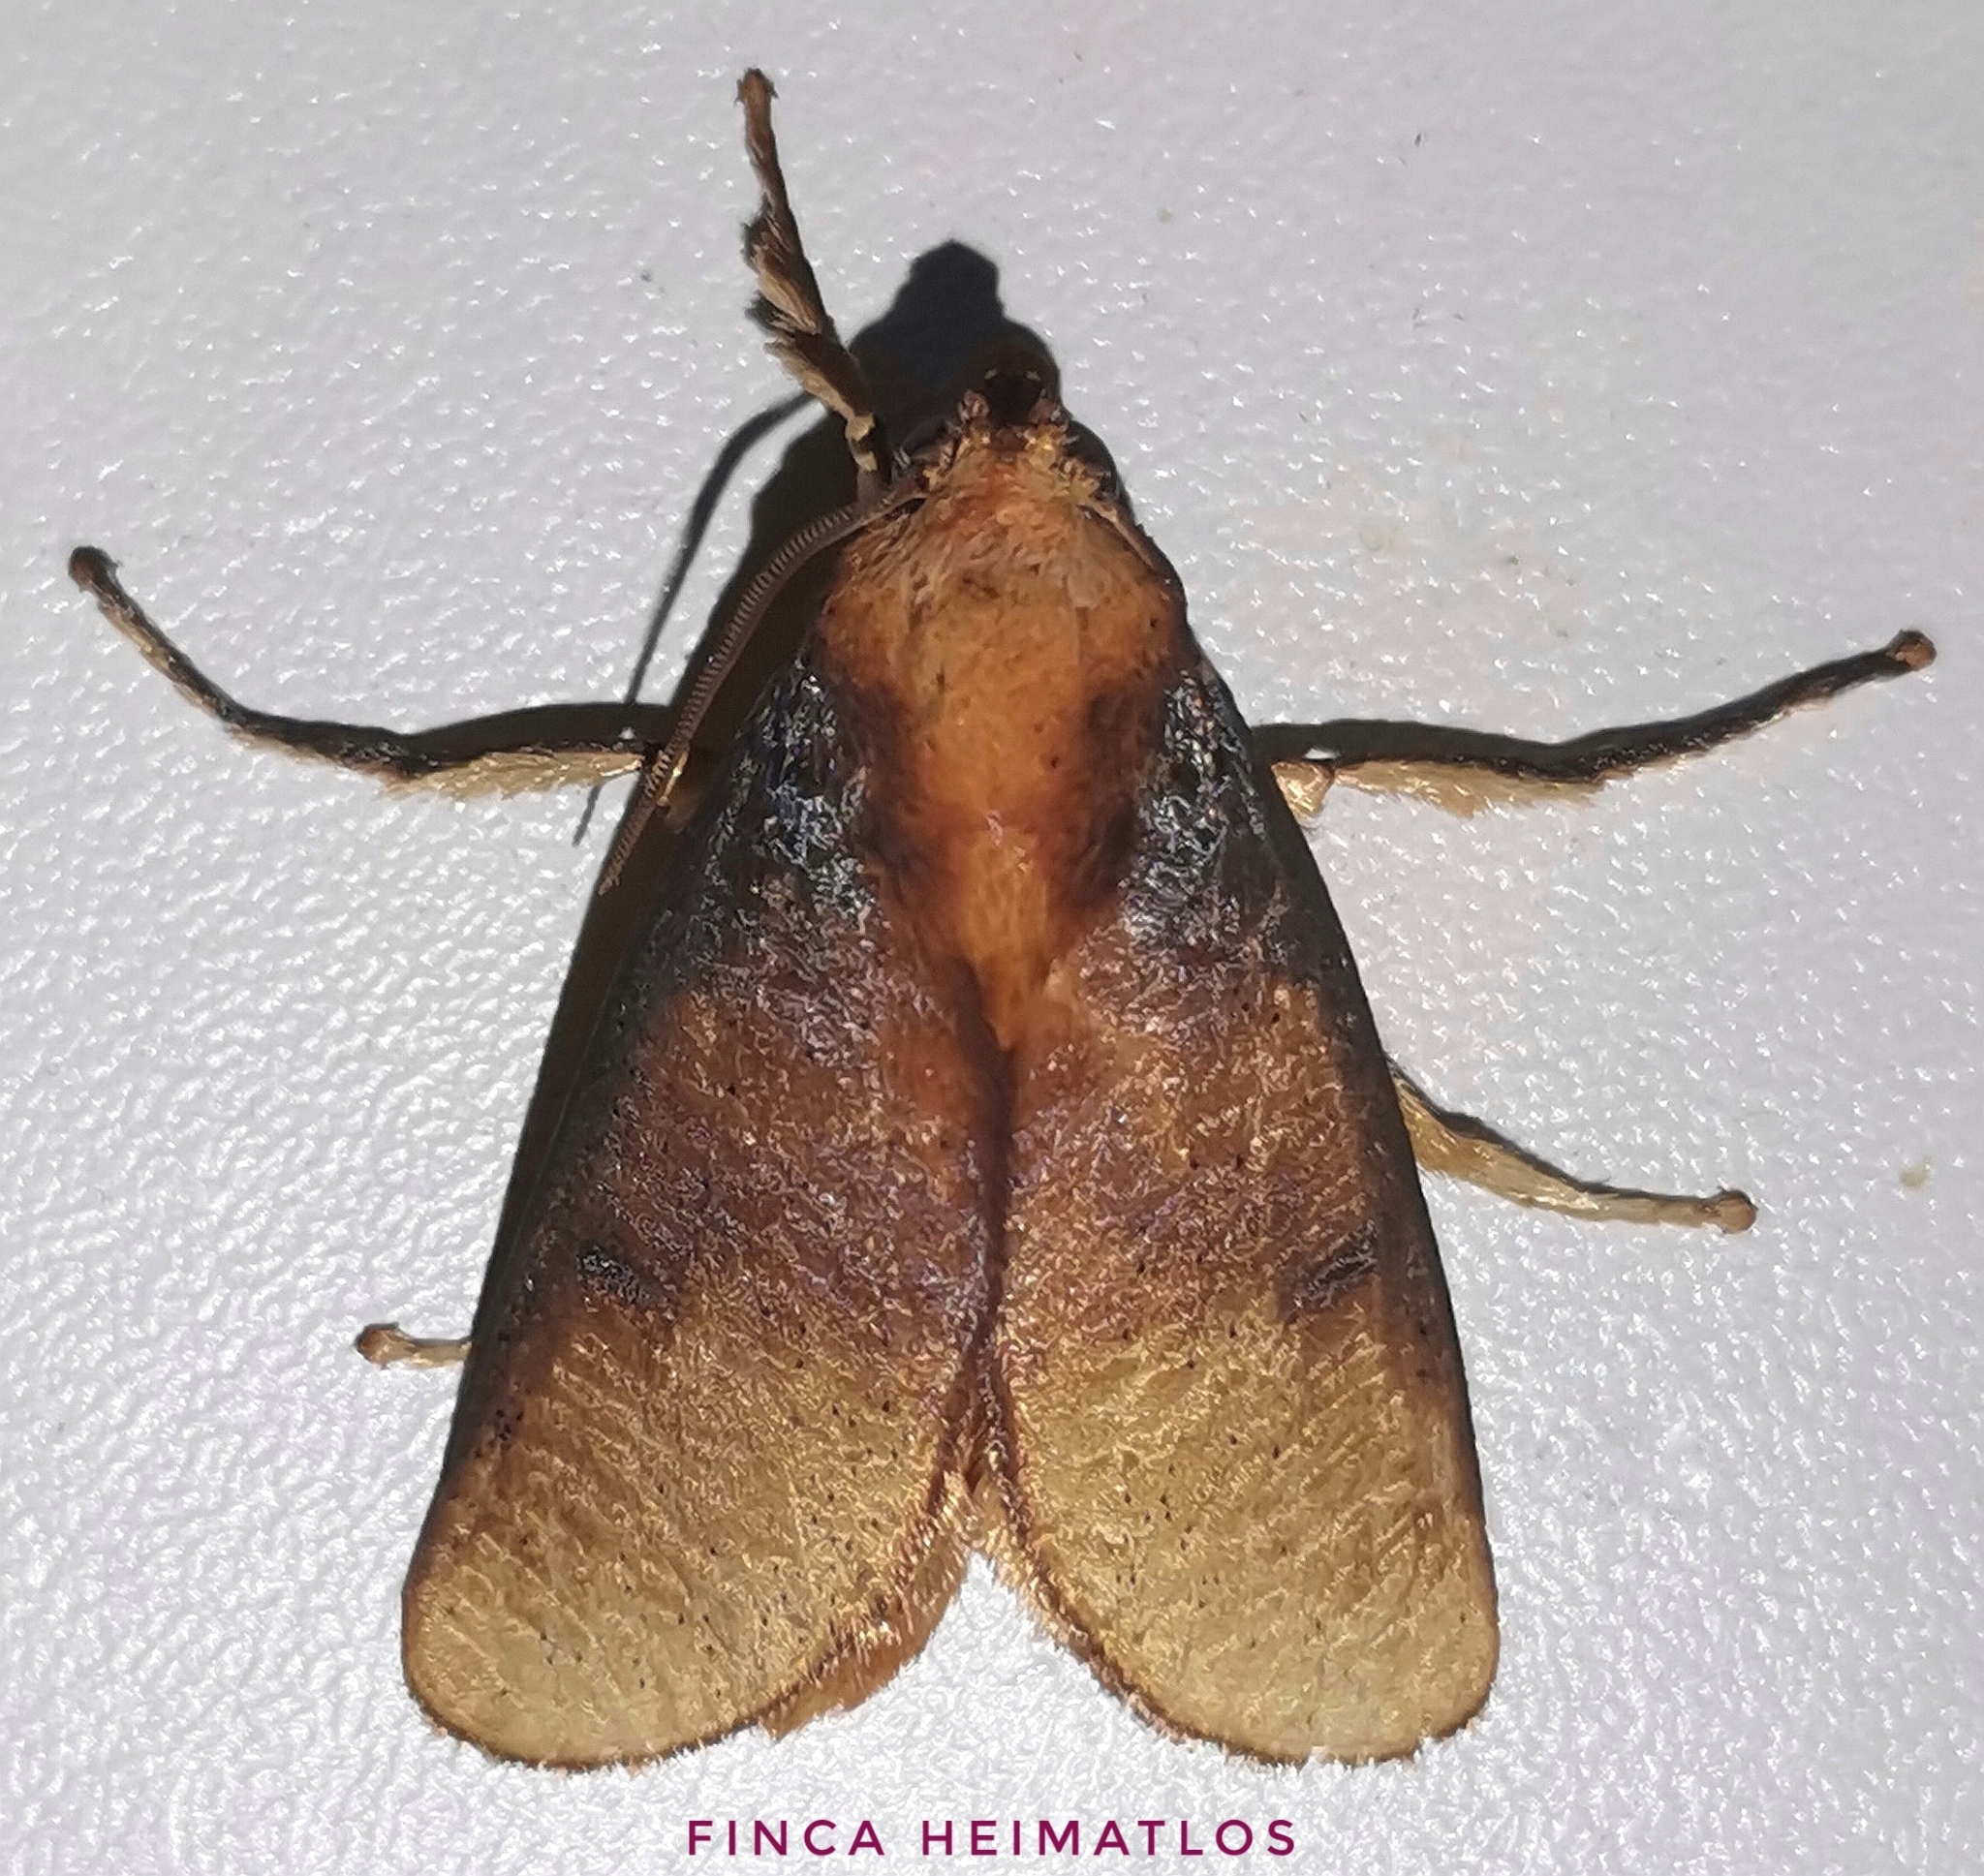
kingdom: Animalia
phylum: Arthropoda
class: Insecta
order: Lepidoptera
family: Limacodidae
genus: Ulamia
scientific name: Ulamia sericea
